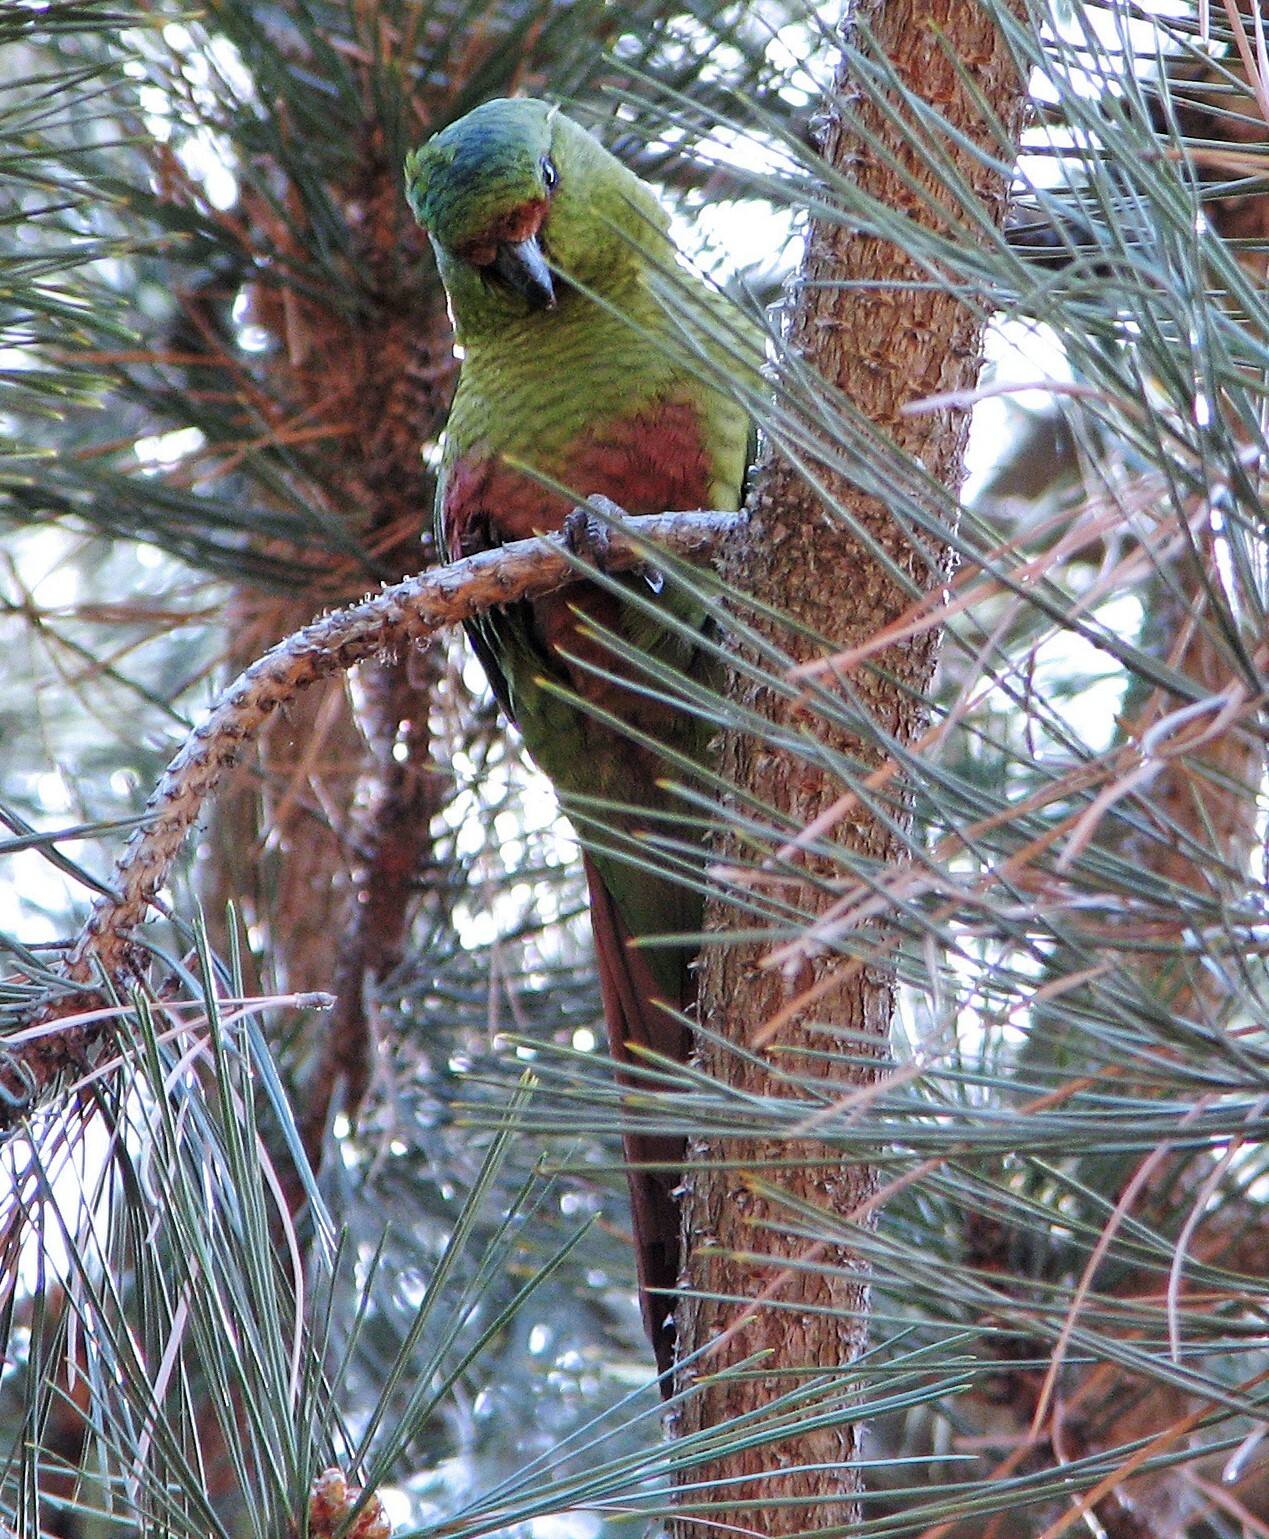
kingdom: Animalia
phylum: Chordata
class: Aves
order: Psittaciformes
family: Psittacidae
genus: Enicognathus
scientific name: Enicognathus ferrugineus
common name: Austral parakeet
